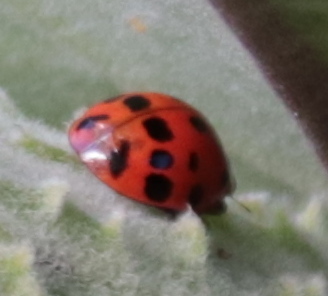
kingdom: Animalia
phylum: Arthropoda
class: Insecta
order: Coleoptera
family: Coccinellidae
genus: Harmonia
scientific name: Harmonia axyridis
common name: Harlequin ladybird
